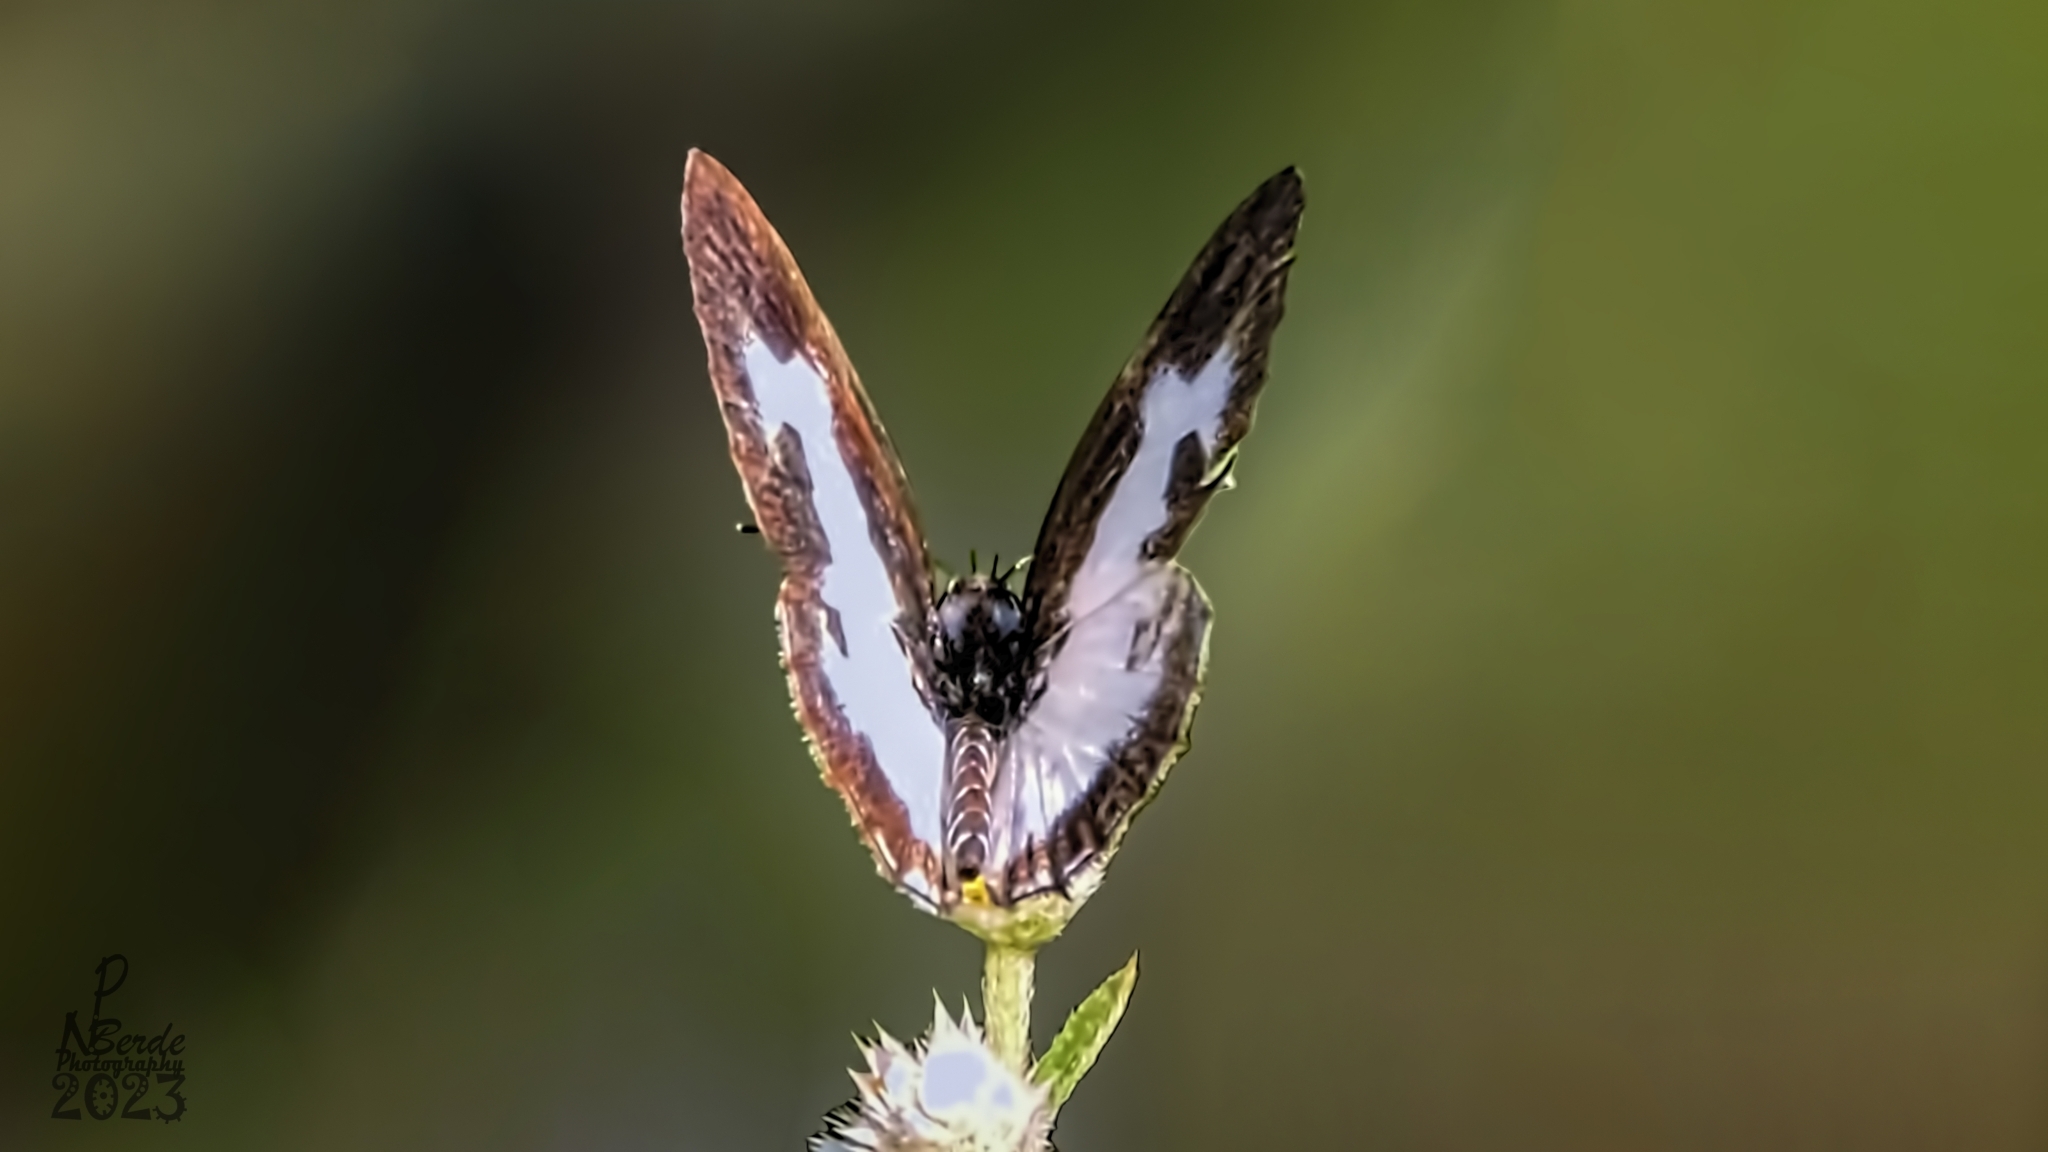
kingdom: Animalia
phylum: Arthropoda
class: Insecta
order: Lepidoptera
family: Lycaenidae
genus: Caleta
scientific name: Caleta decidia
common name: Angled pierrot
